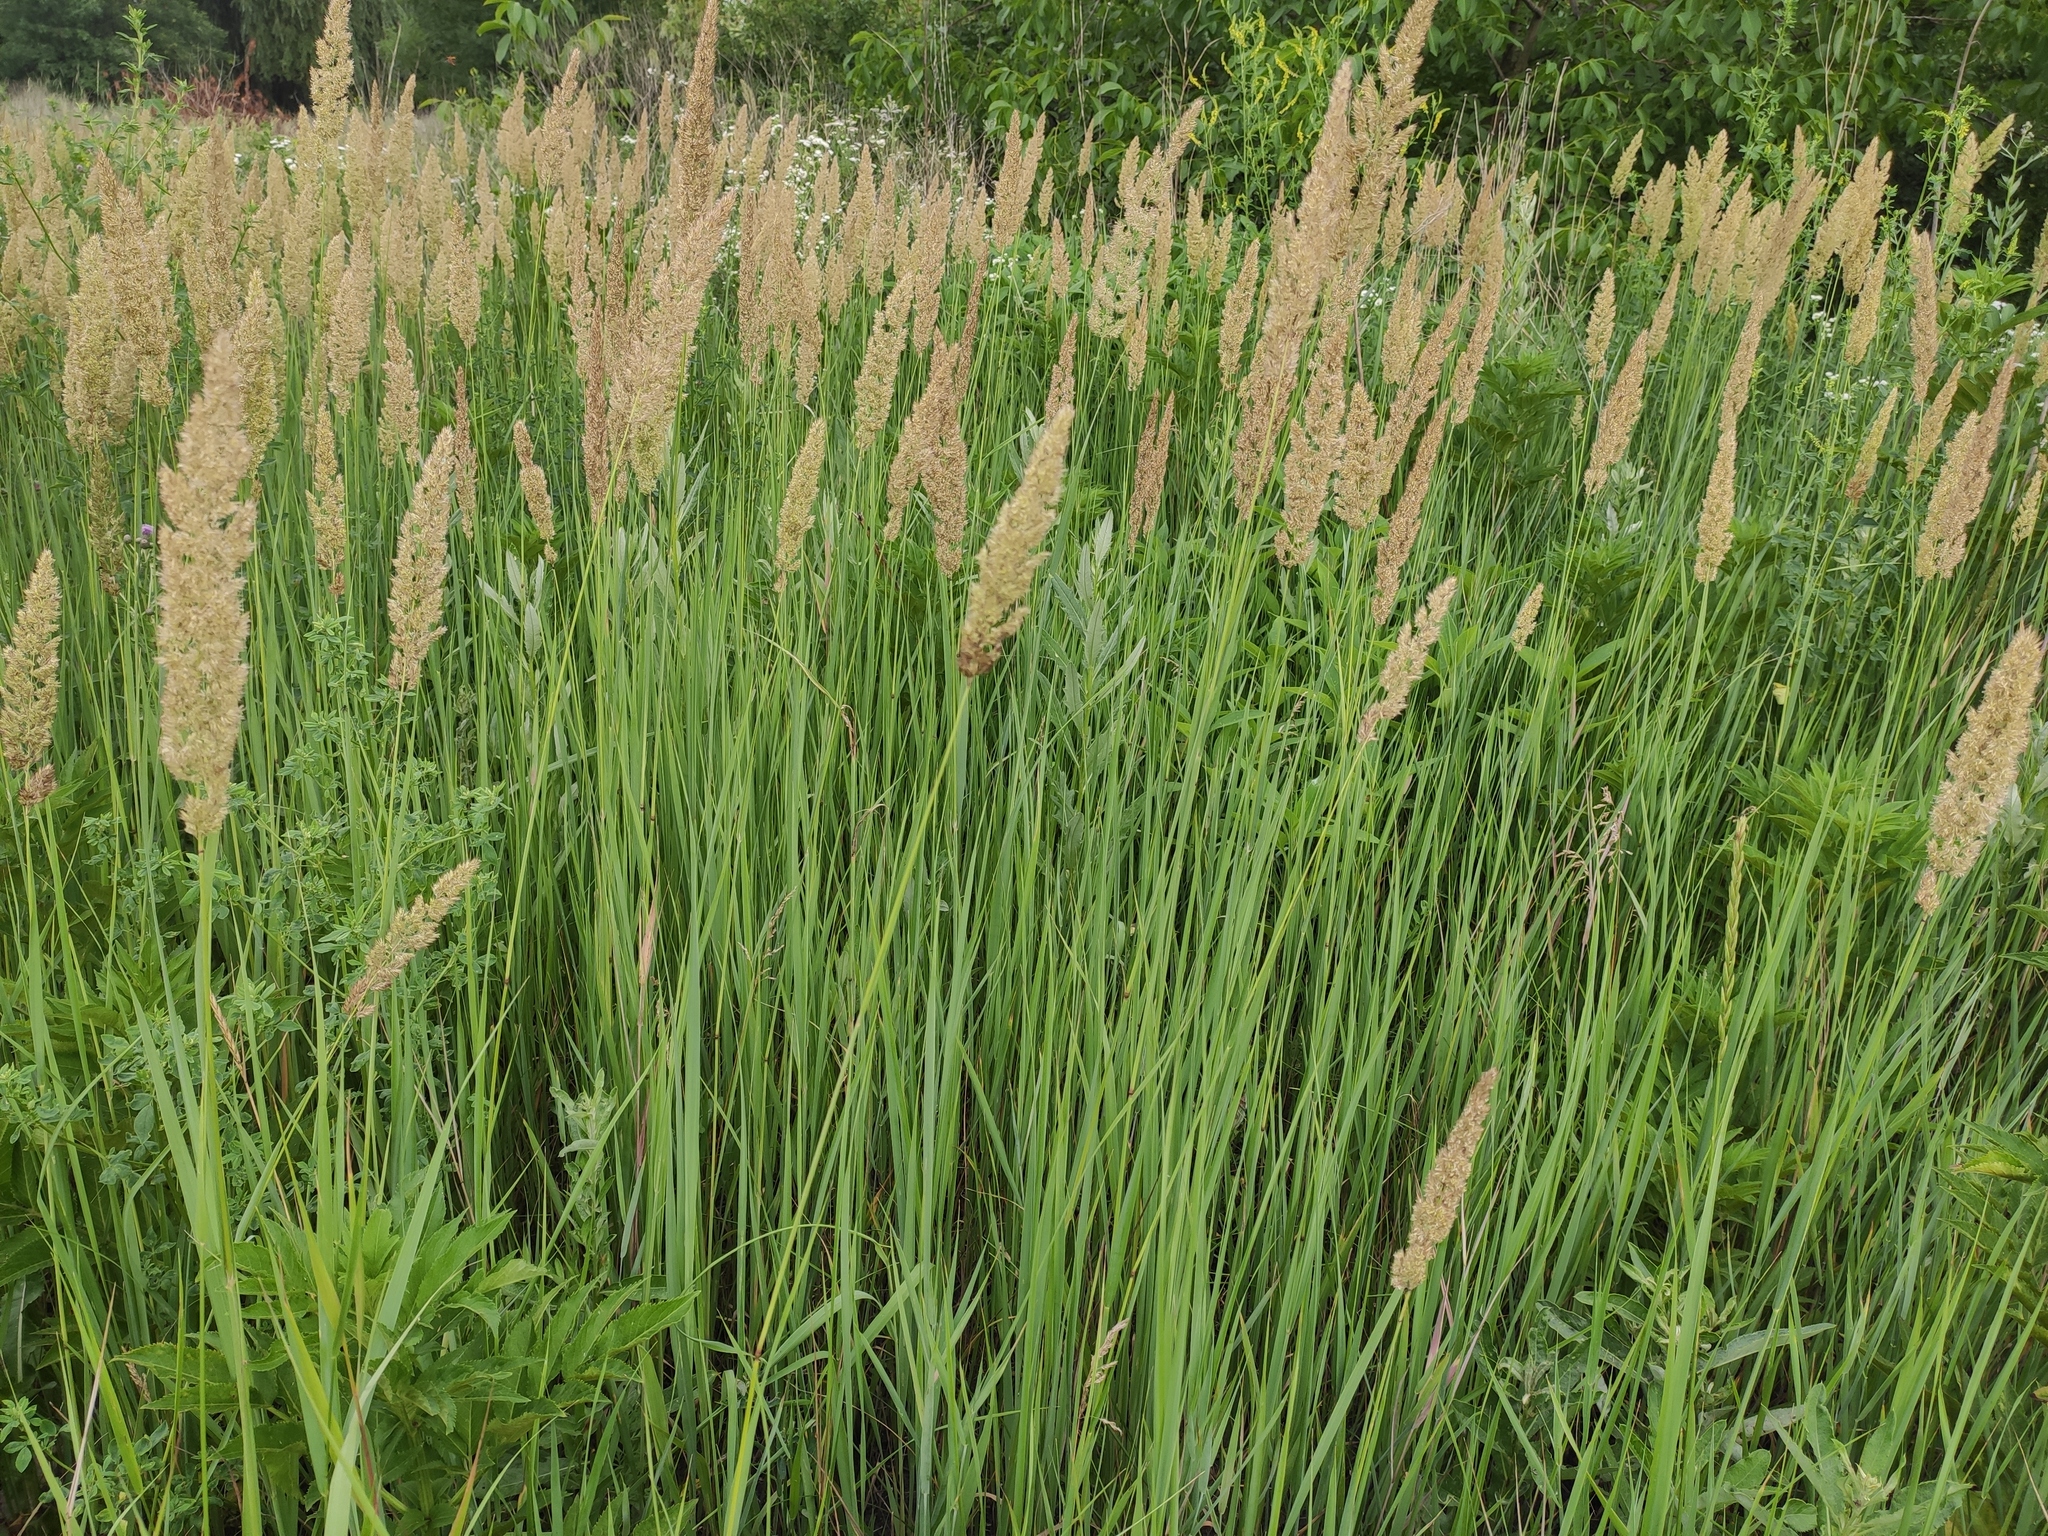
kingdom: Plantae
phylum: Tracheophyta
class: Liliopsida
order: Poales
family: Poaceae
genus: Calamagrostis
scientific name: Calamagrostis epigejos
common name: Wood small-reed
